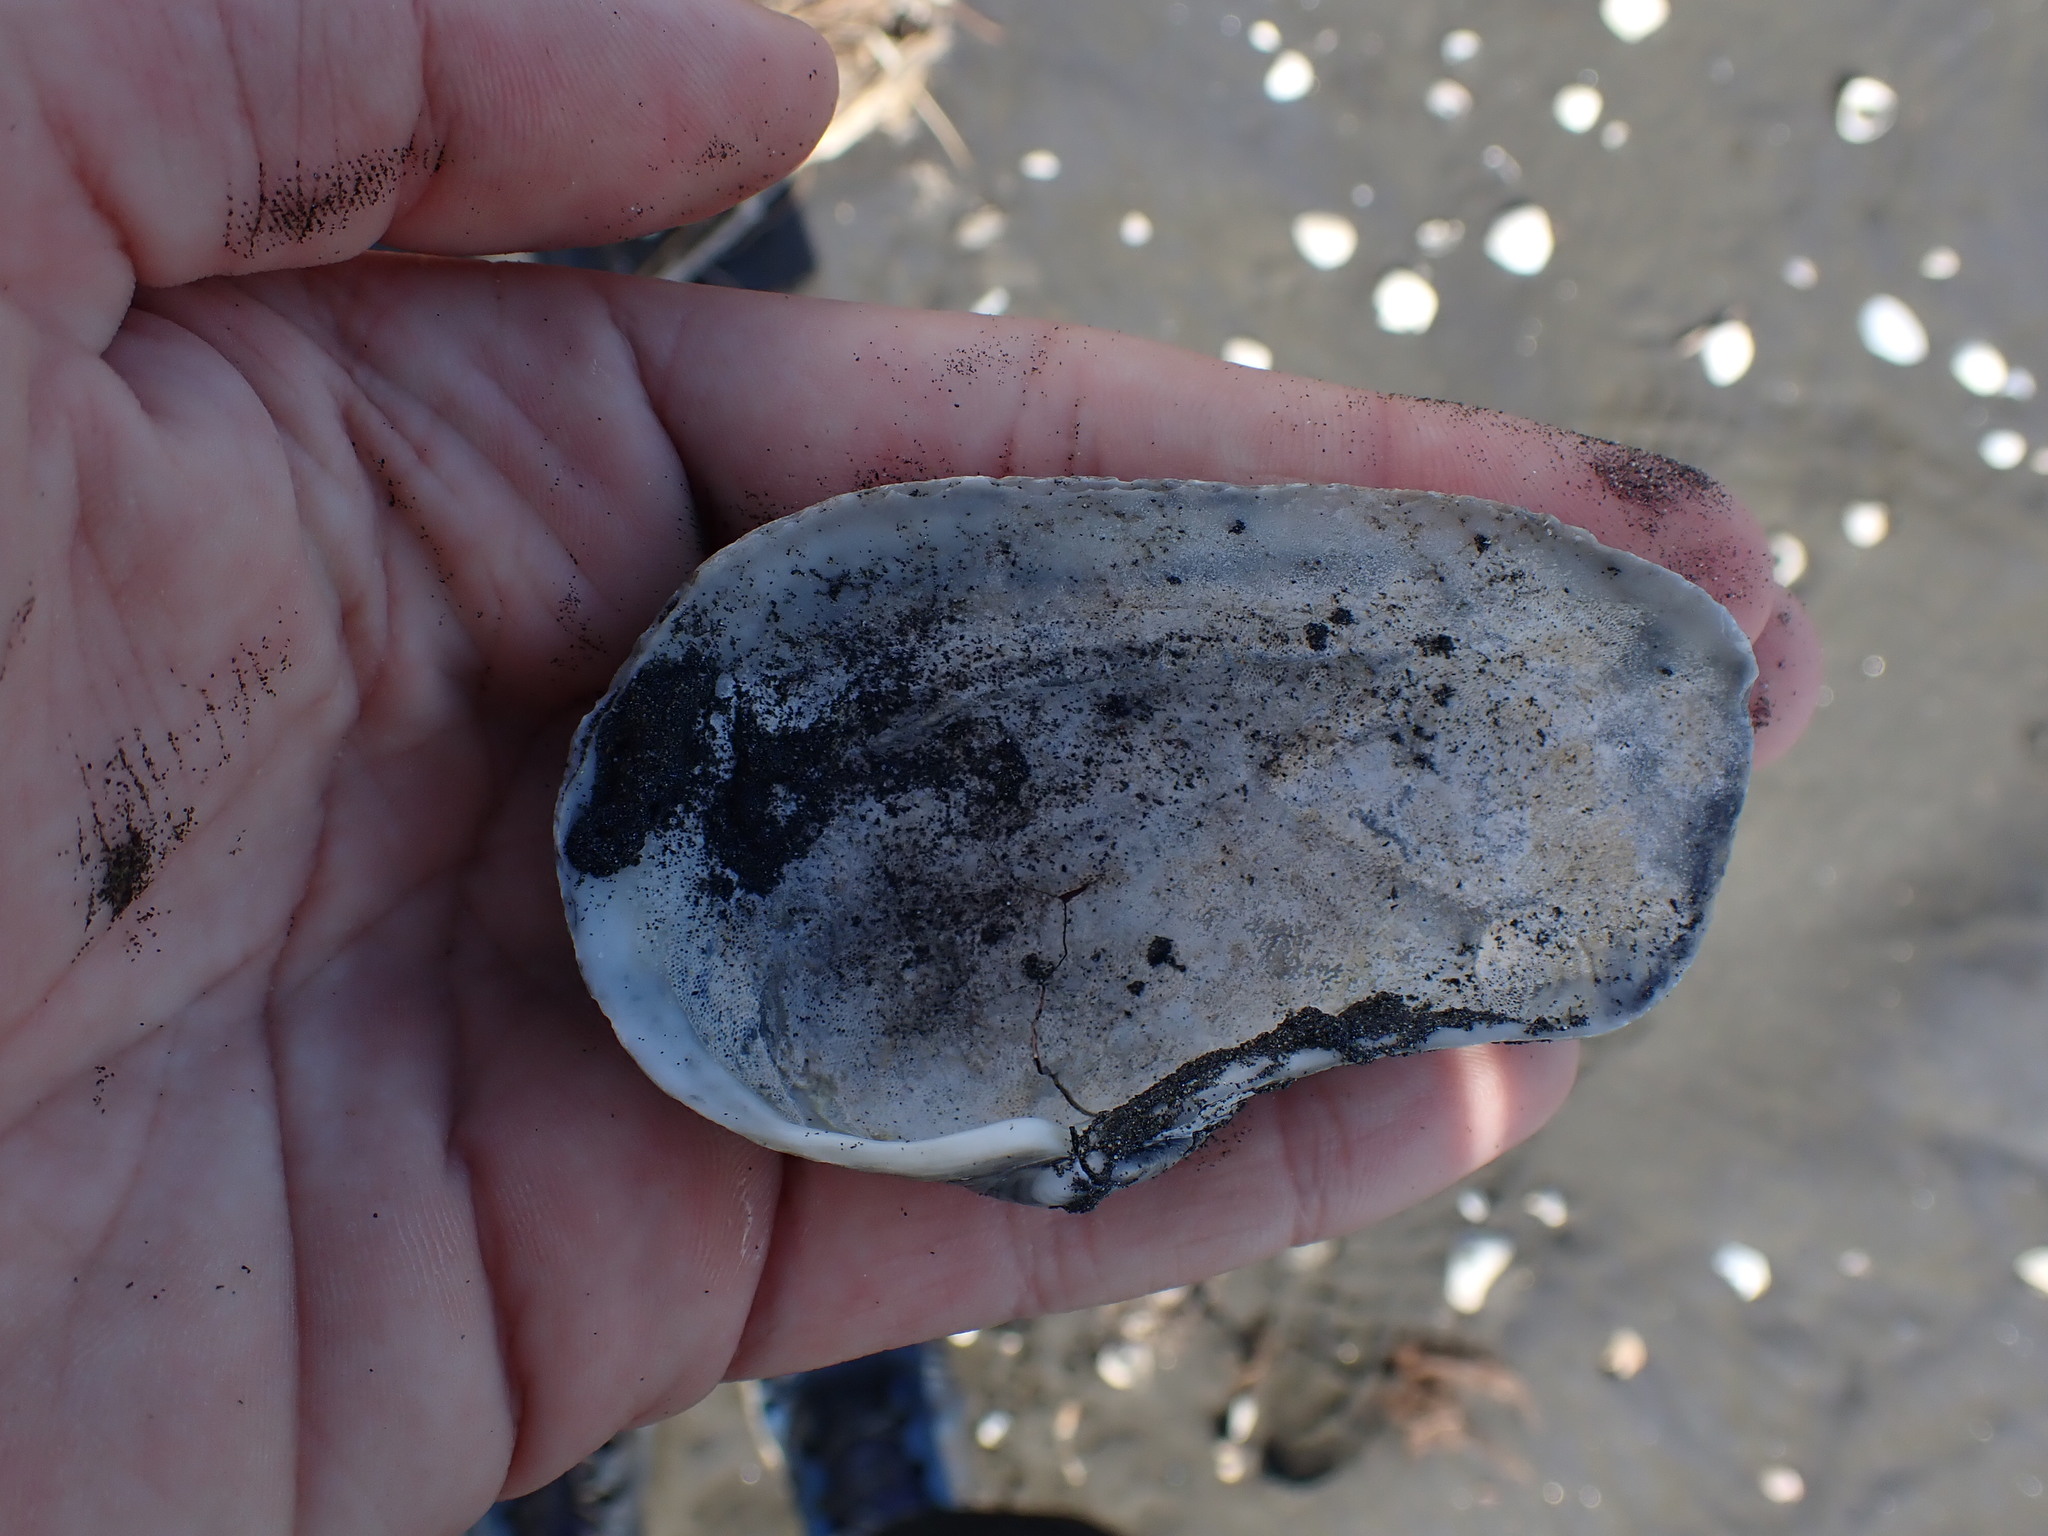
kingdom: Animalia
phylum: Mollusca
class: Bivalvia
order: Adapedonta
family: Hiatellidae
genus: Panopea
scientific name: Panopea zelandica
